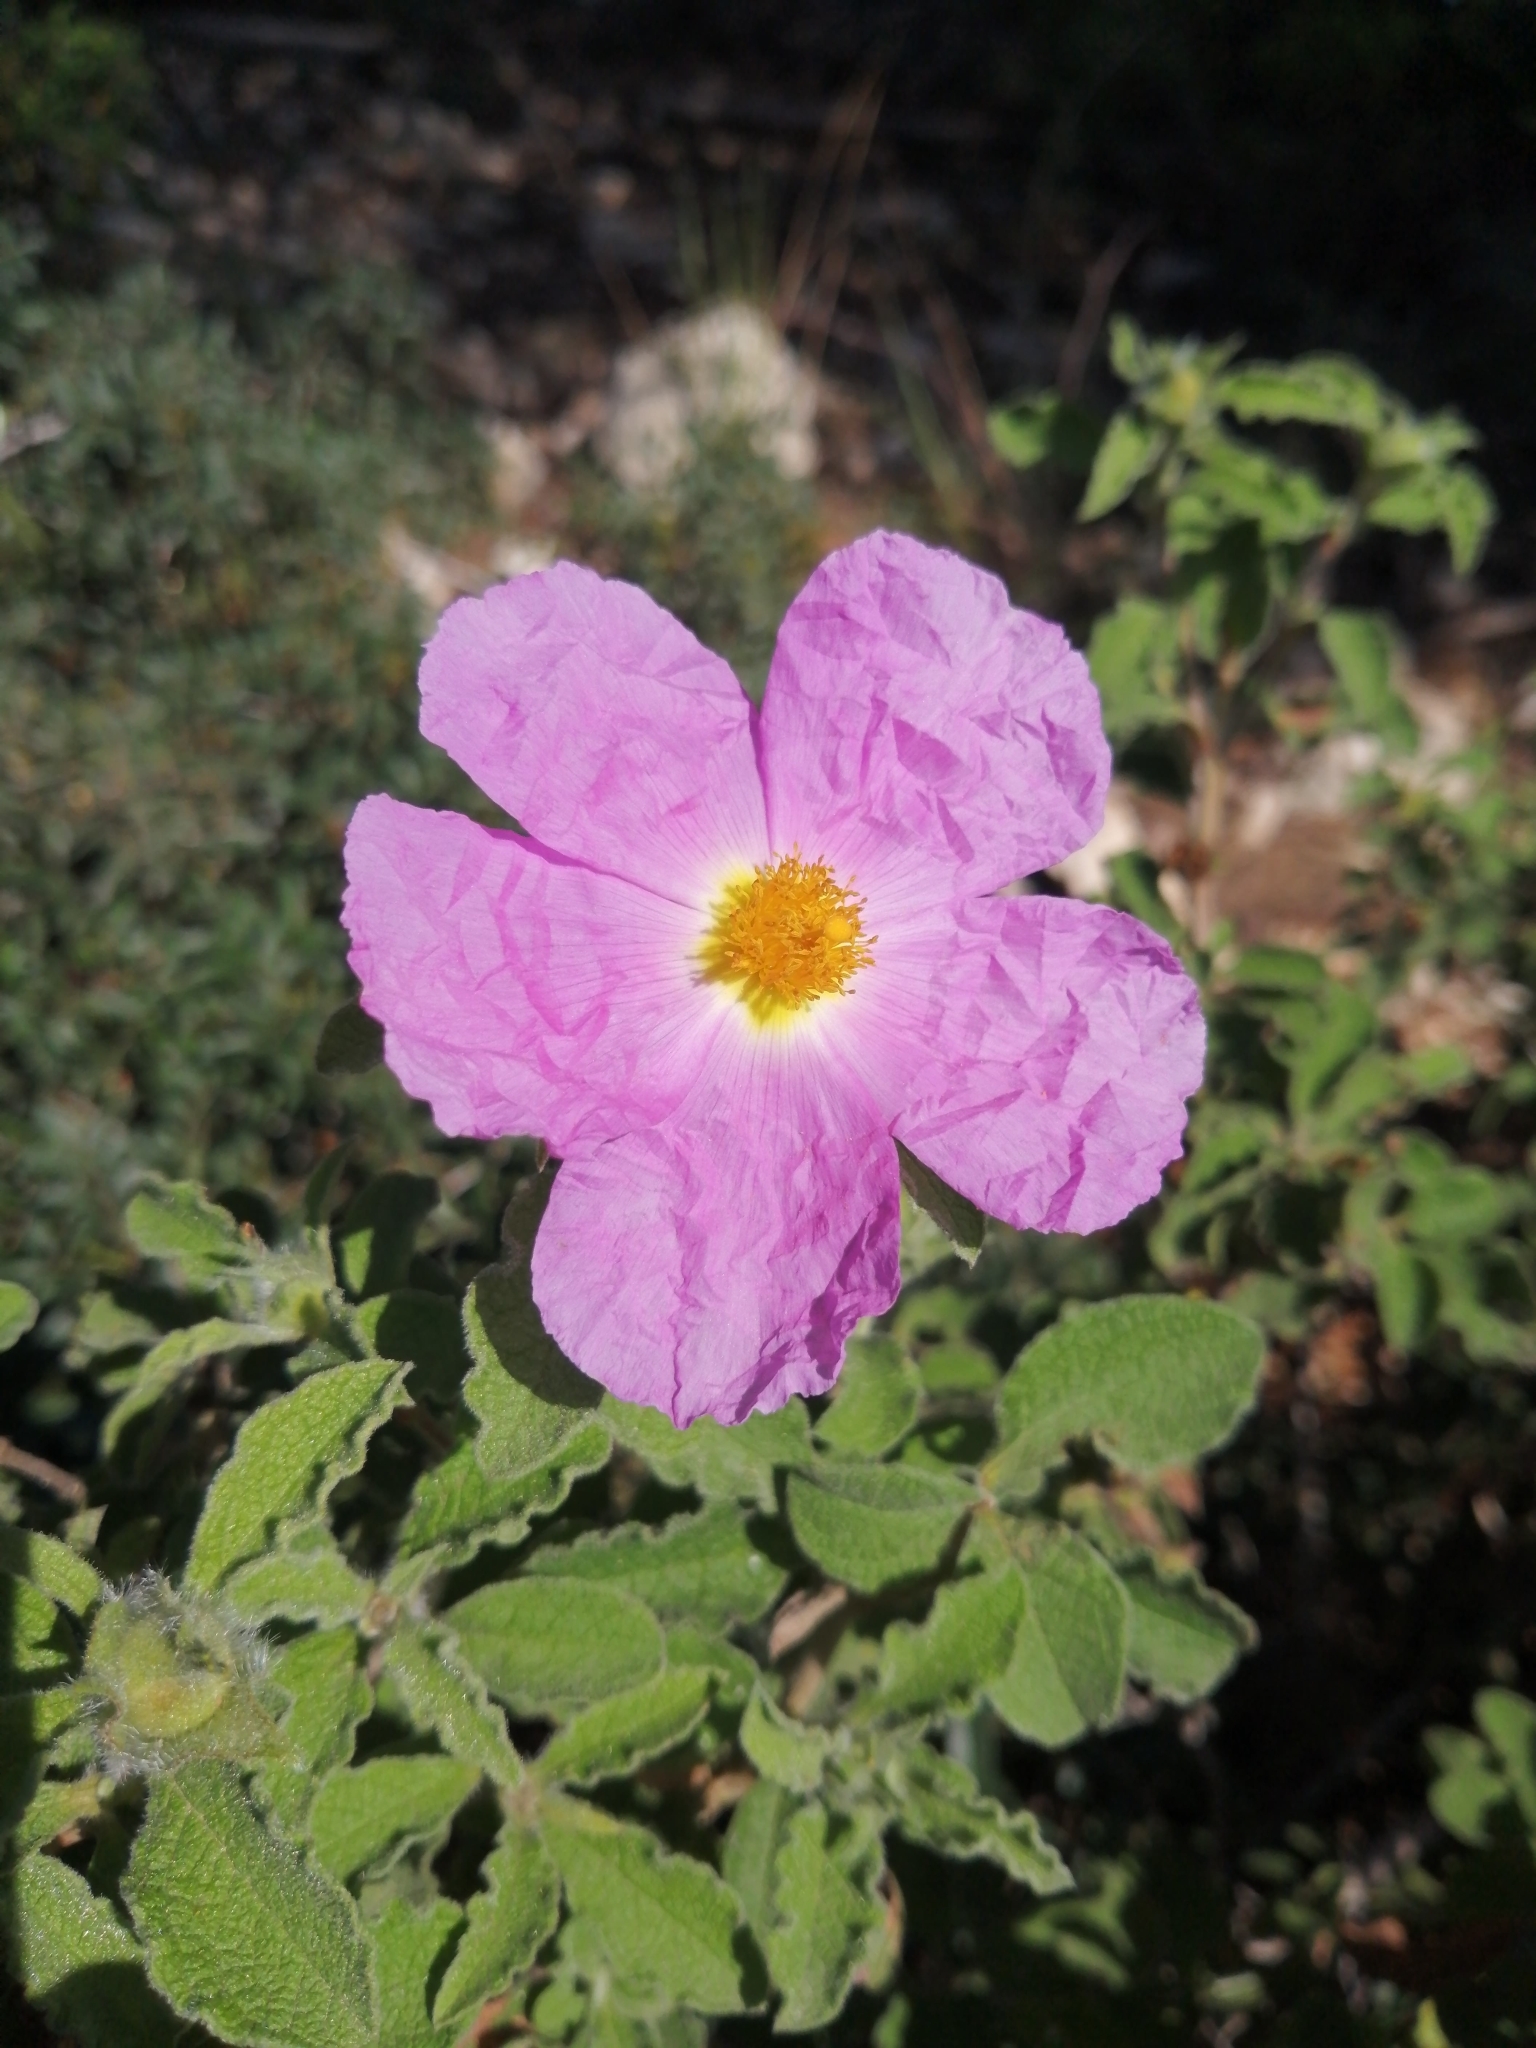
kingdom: Plantae
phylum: Tracheophyta
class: Magnoliopsida
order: Malvales
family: Cistaceae
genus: Cistus
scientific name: Cistus creticus
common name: Cretan rockrose
